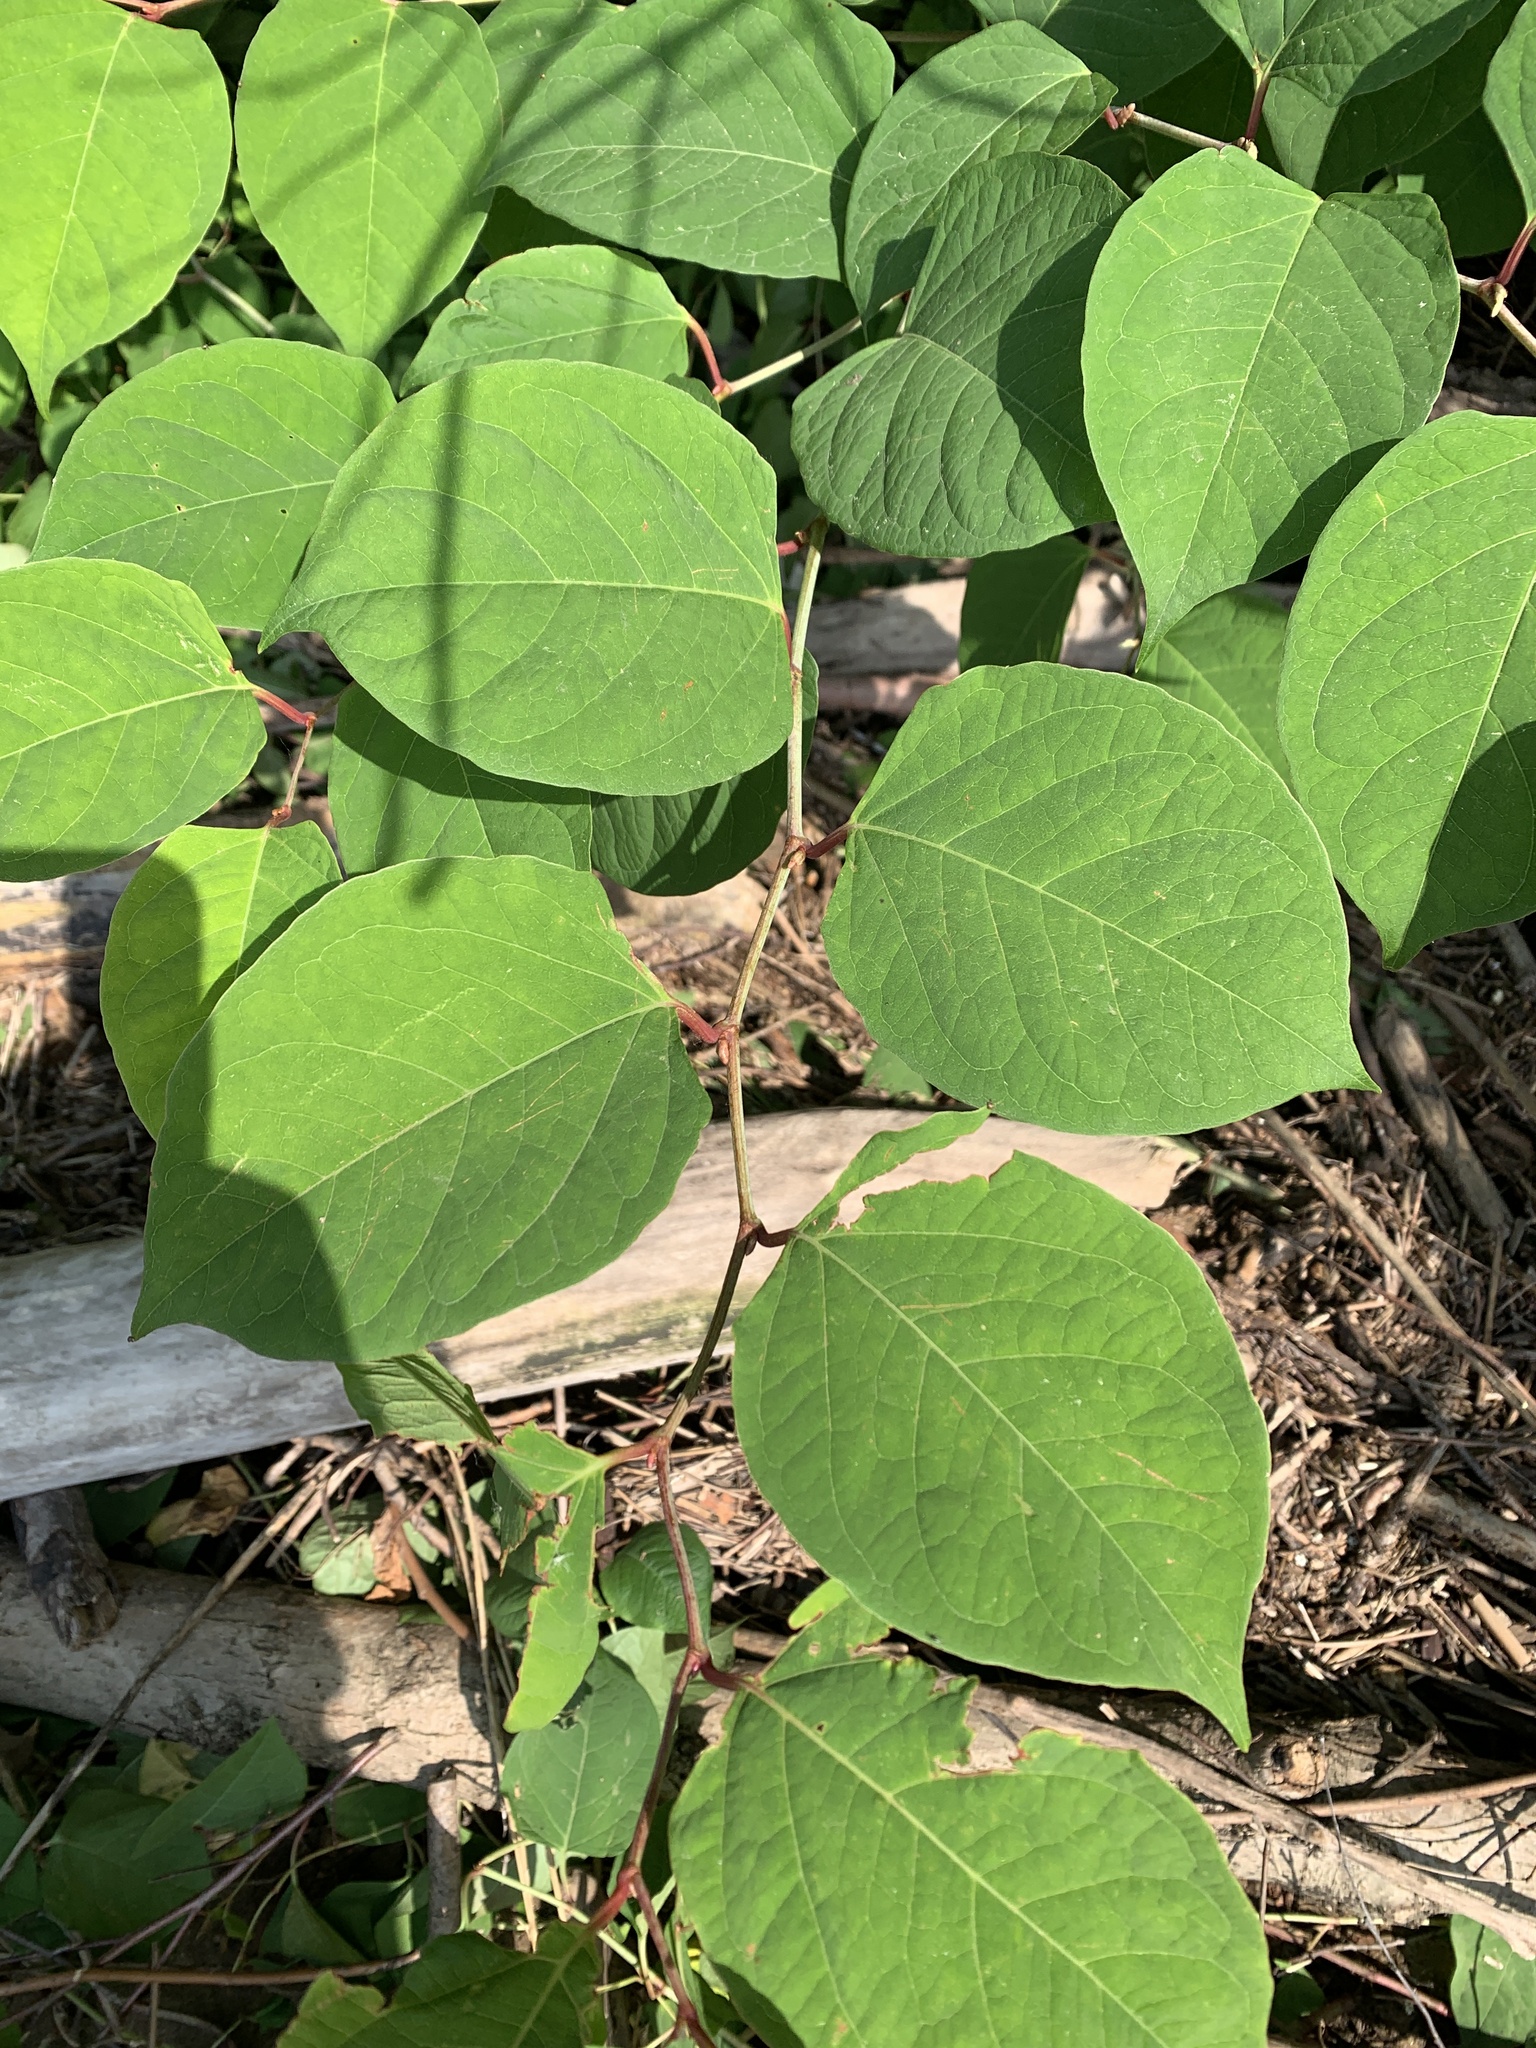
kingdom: Plantae
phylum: Tracheophyta
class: Magnoliopsida
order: Caryophyllales
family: Polygonaceae
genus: Reynoutria
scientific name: Reynoutria japonica
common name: Japanese knotweed
